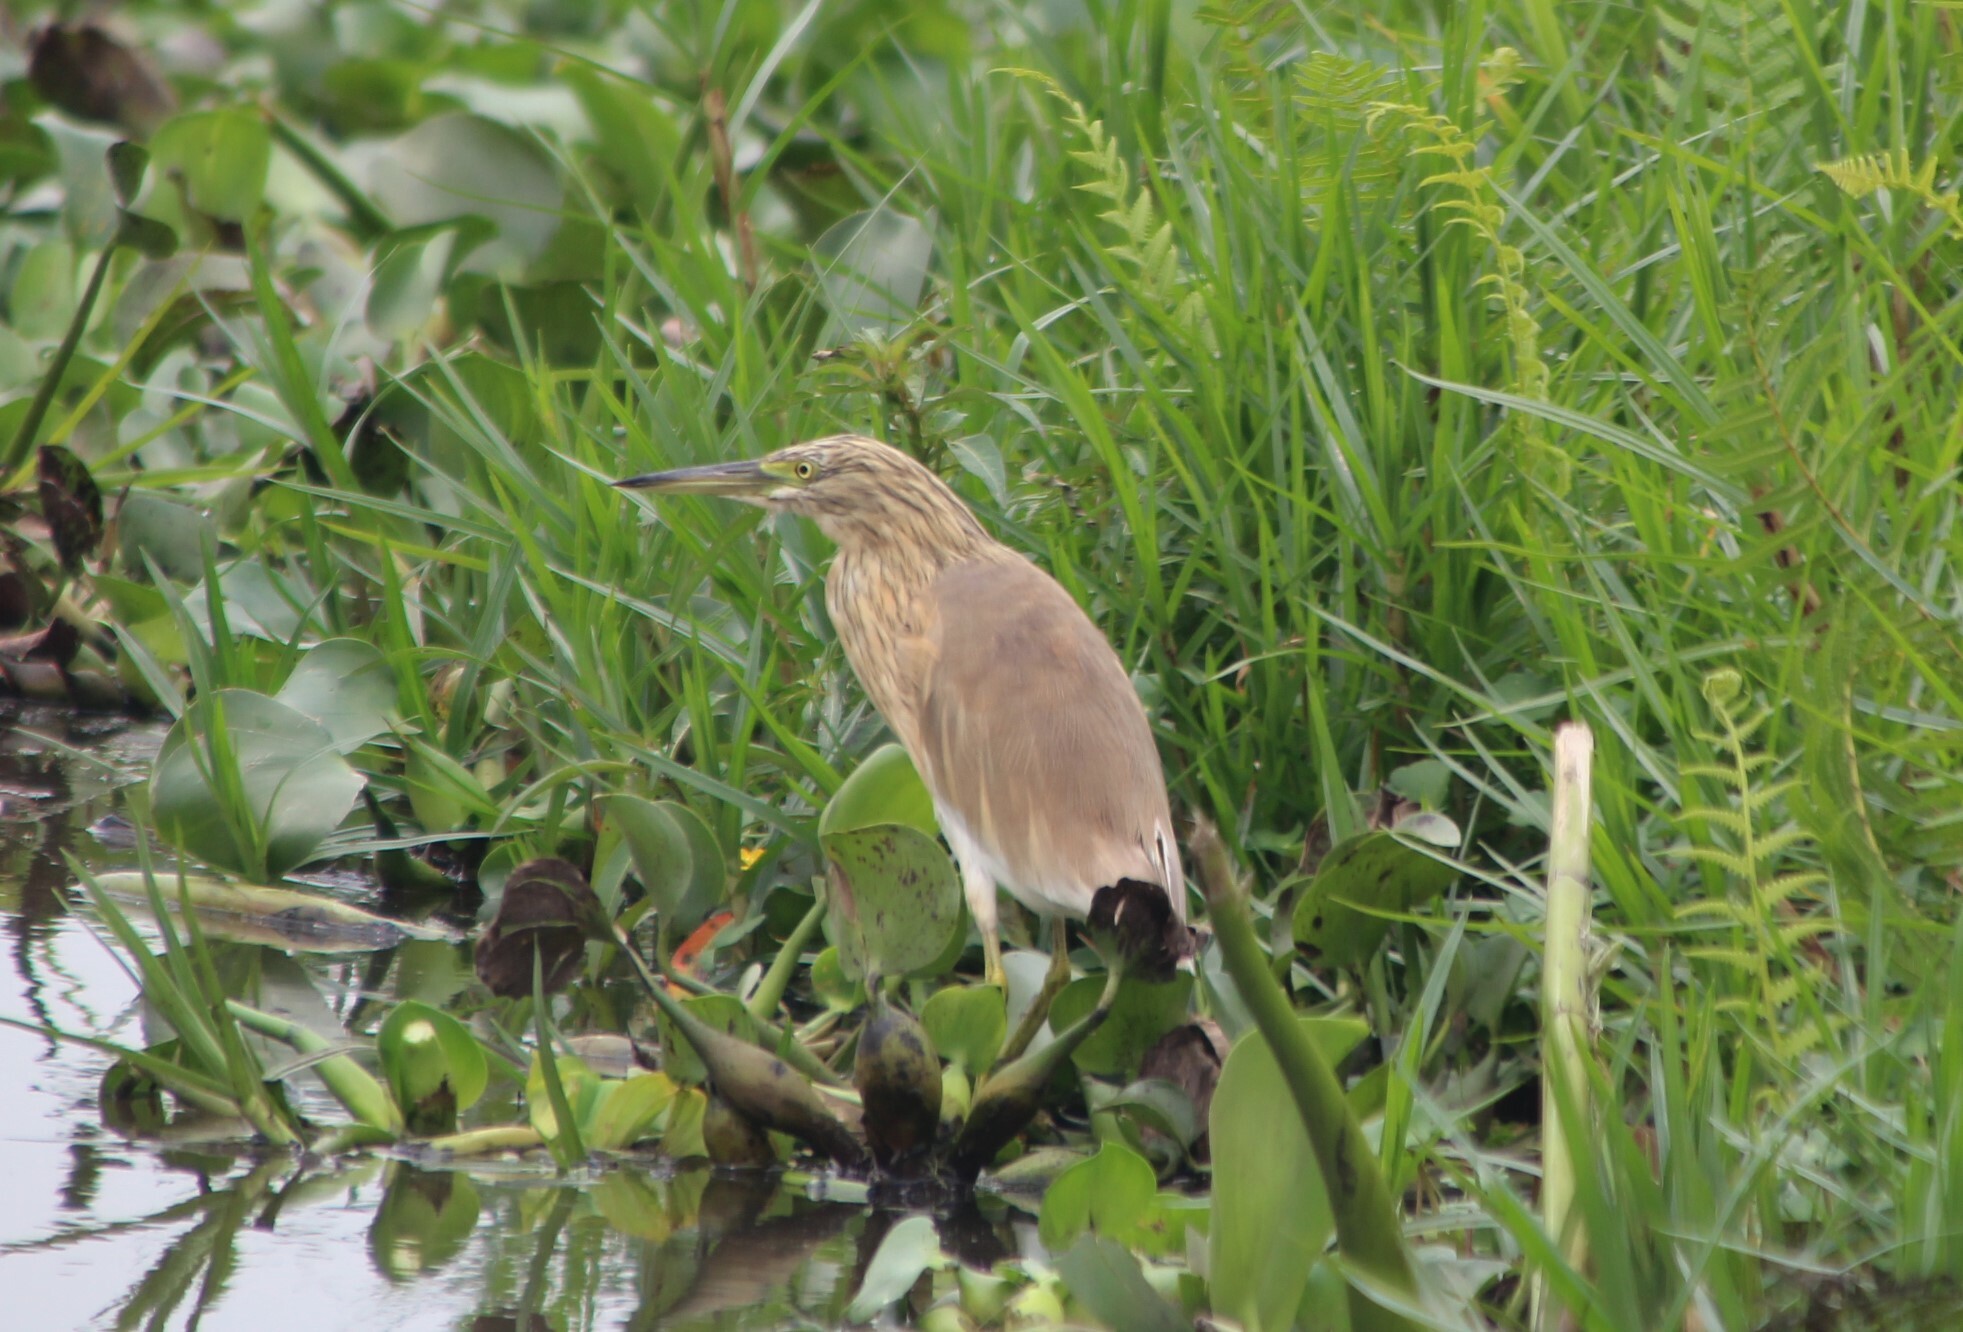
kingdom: Animalia
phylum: Chordata
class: Aves
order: Pelecaniformes
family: Ardeidae
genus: Ardeola
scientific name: Ardeola ralloides
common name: Squacco heron
